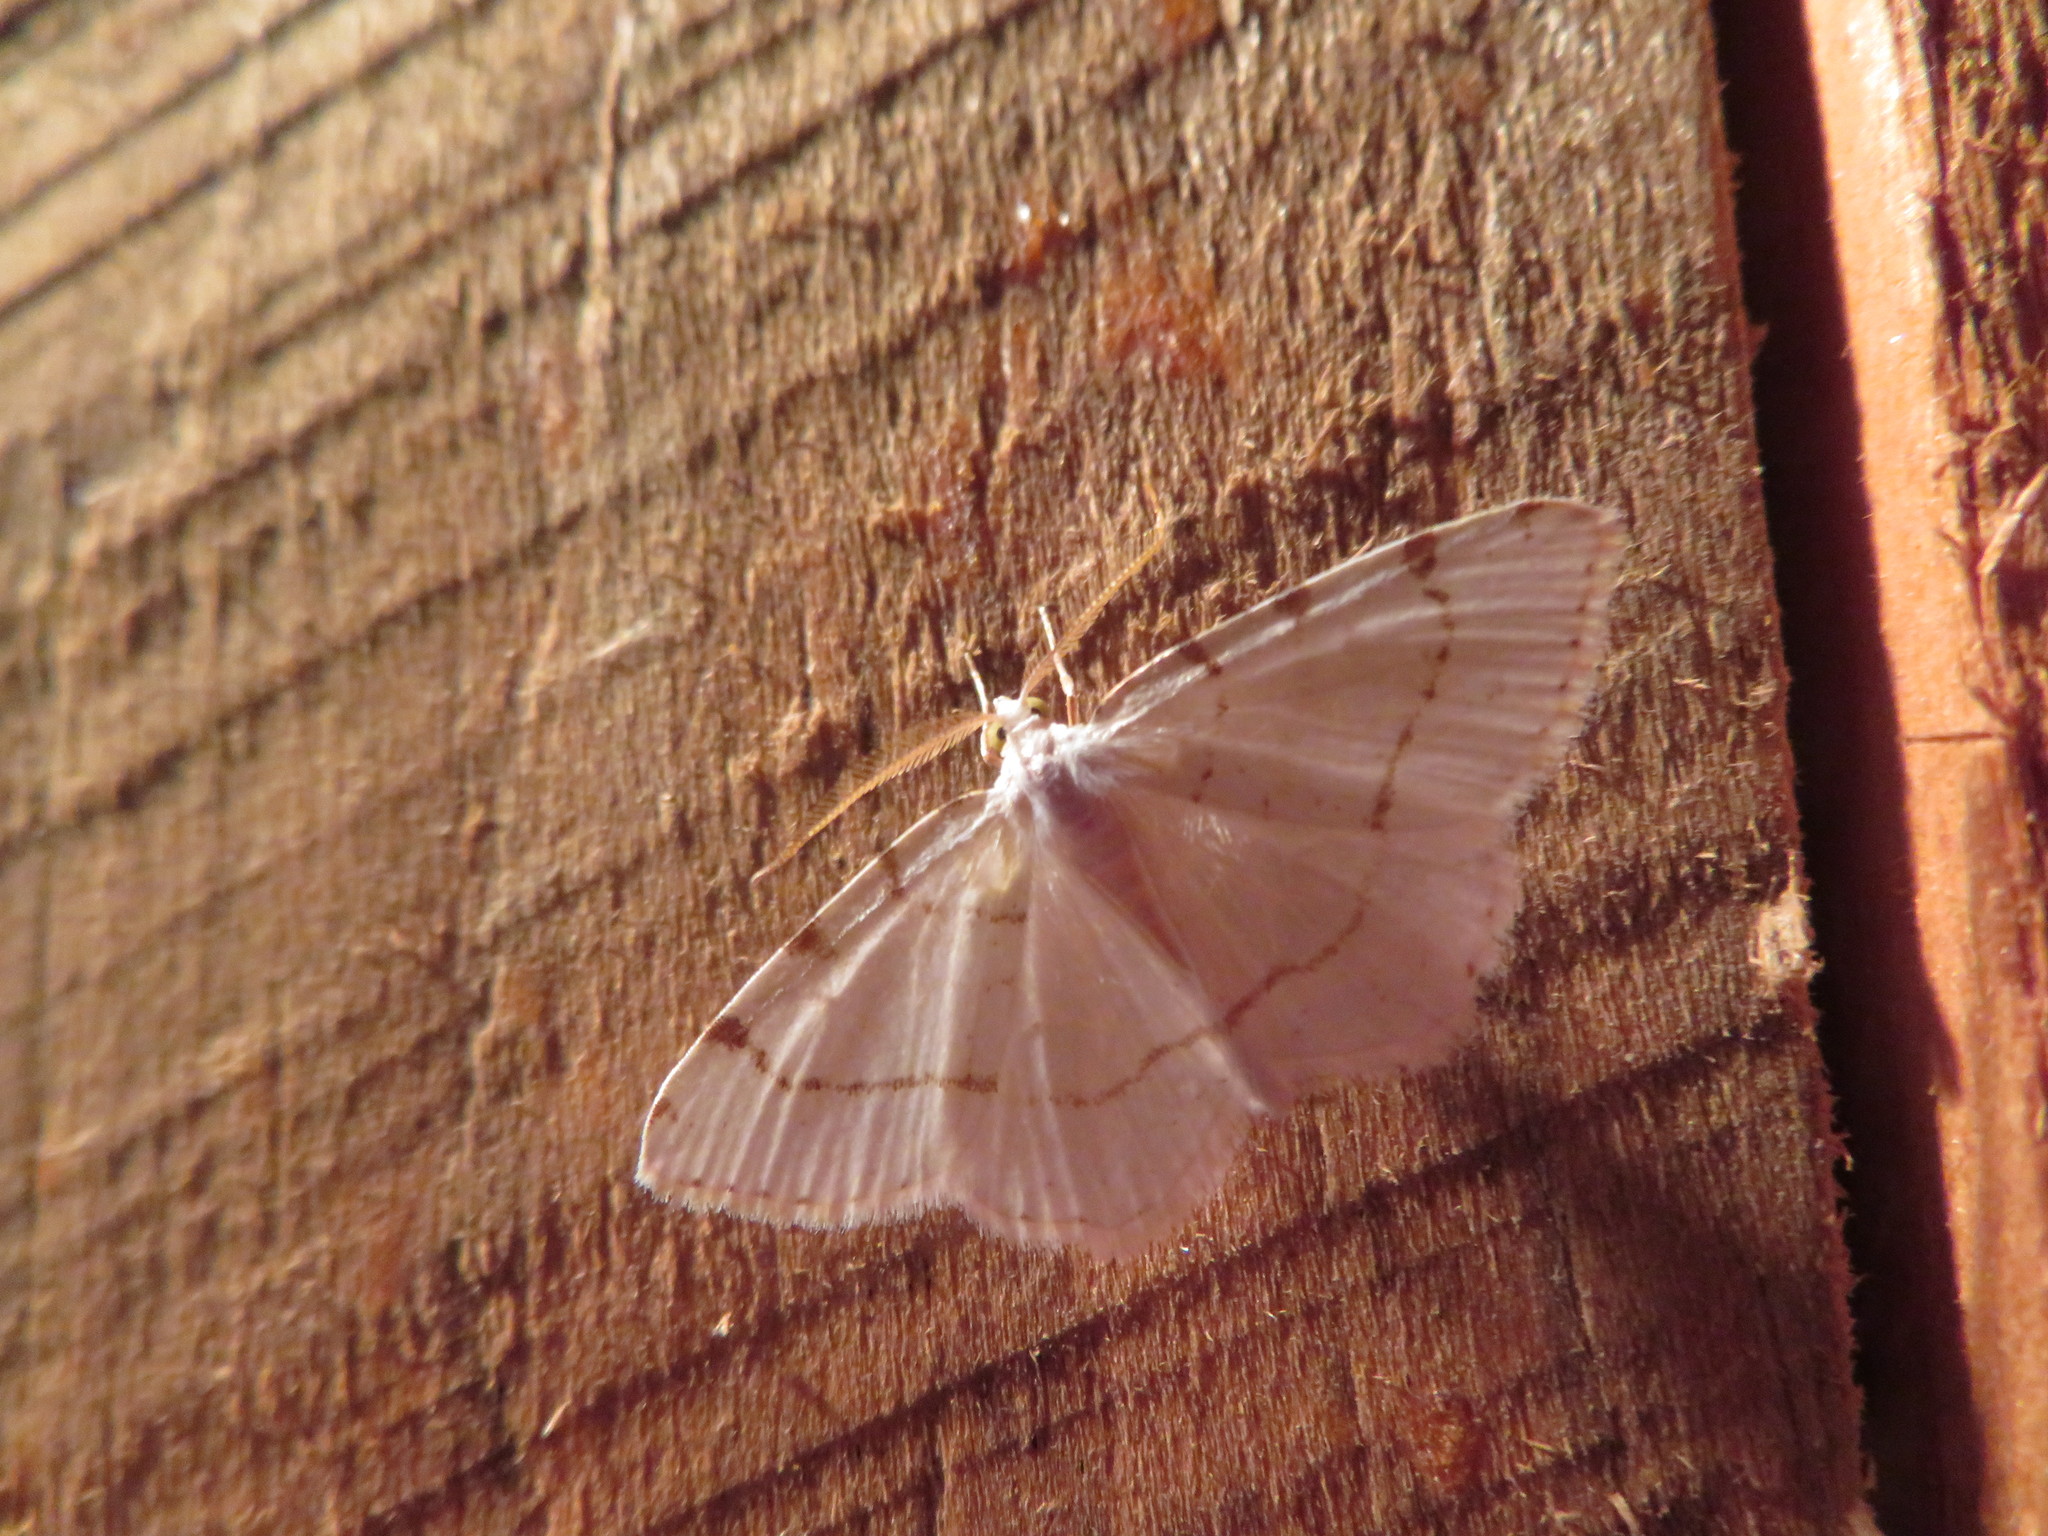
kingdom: Animalia
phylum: Arthropoda
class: Insecta
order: Lepidoptera
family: Geometridae
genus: Macaria
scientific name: Macaria pustularia
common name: Lesser maple spanworm moth
